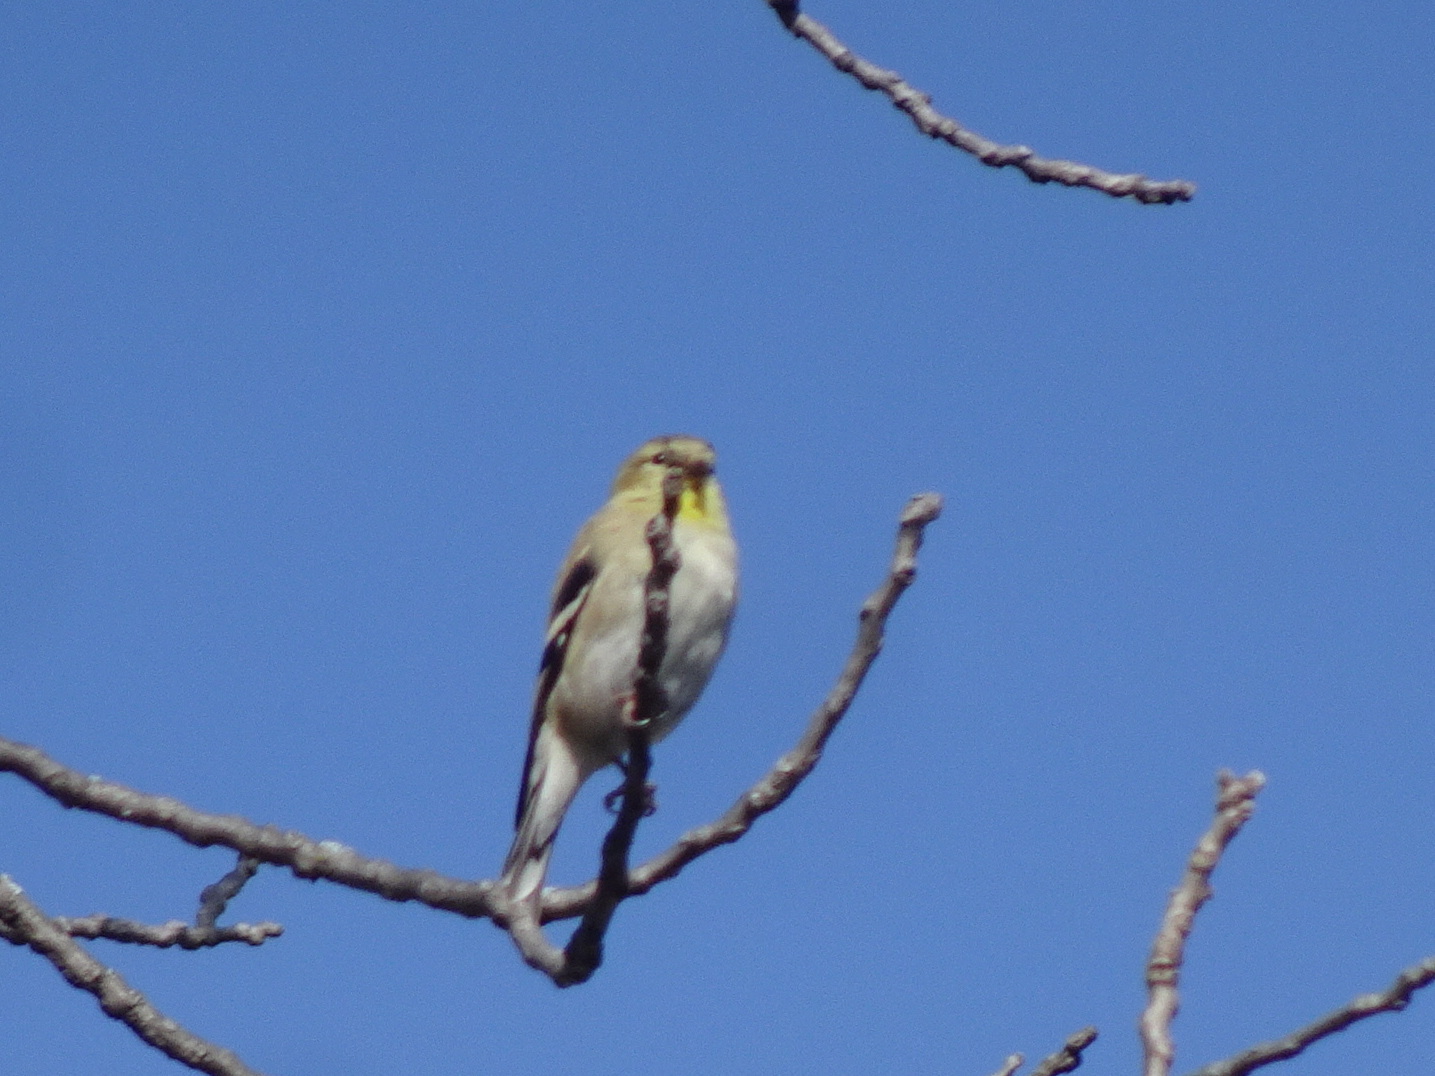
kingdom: Animalia
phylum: Chordata
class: Aves
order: Passeriformes
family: Fringillidae
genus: Spinus
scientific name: Spinus tristis
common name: American goldfinch
